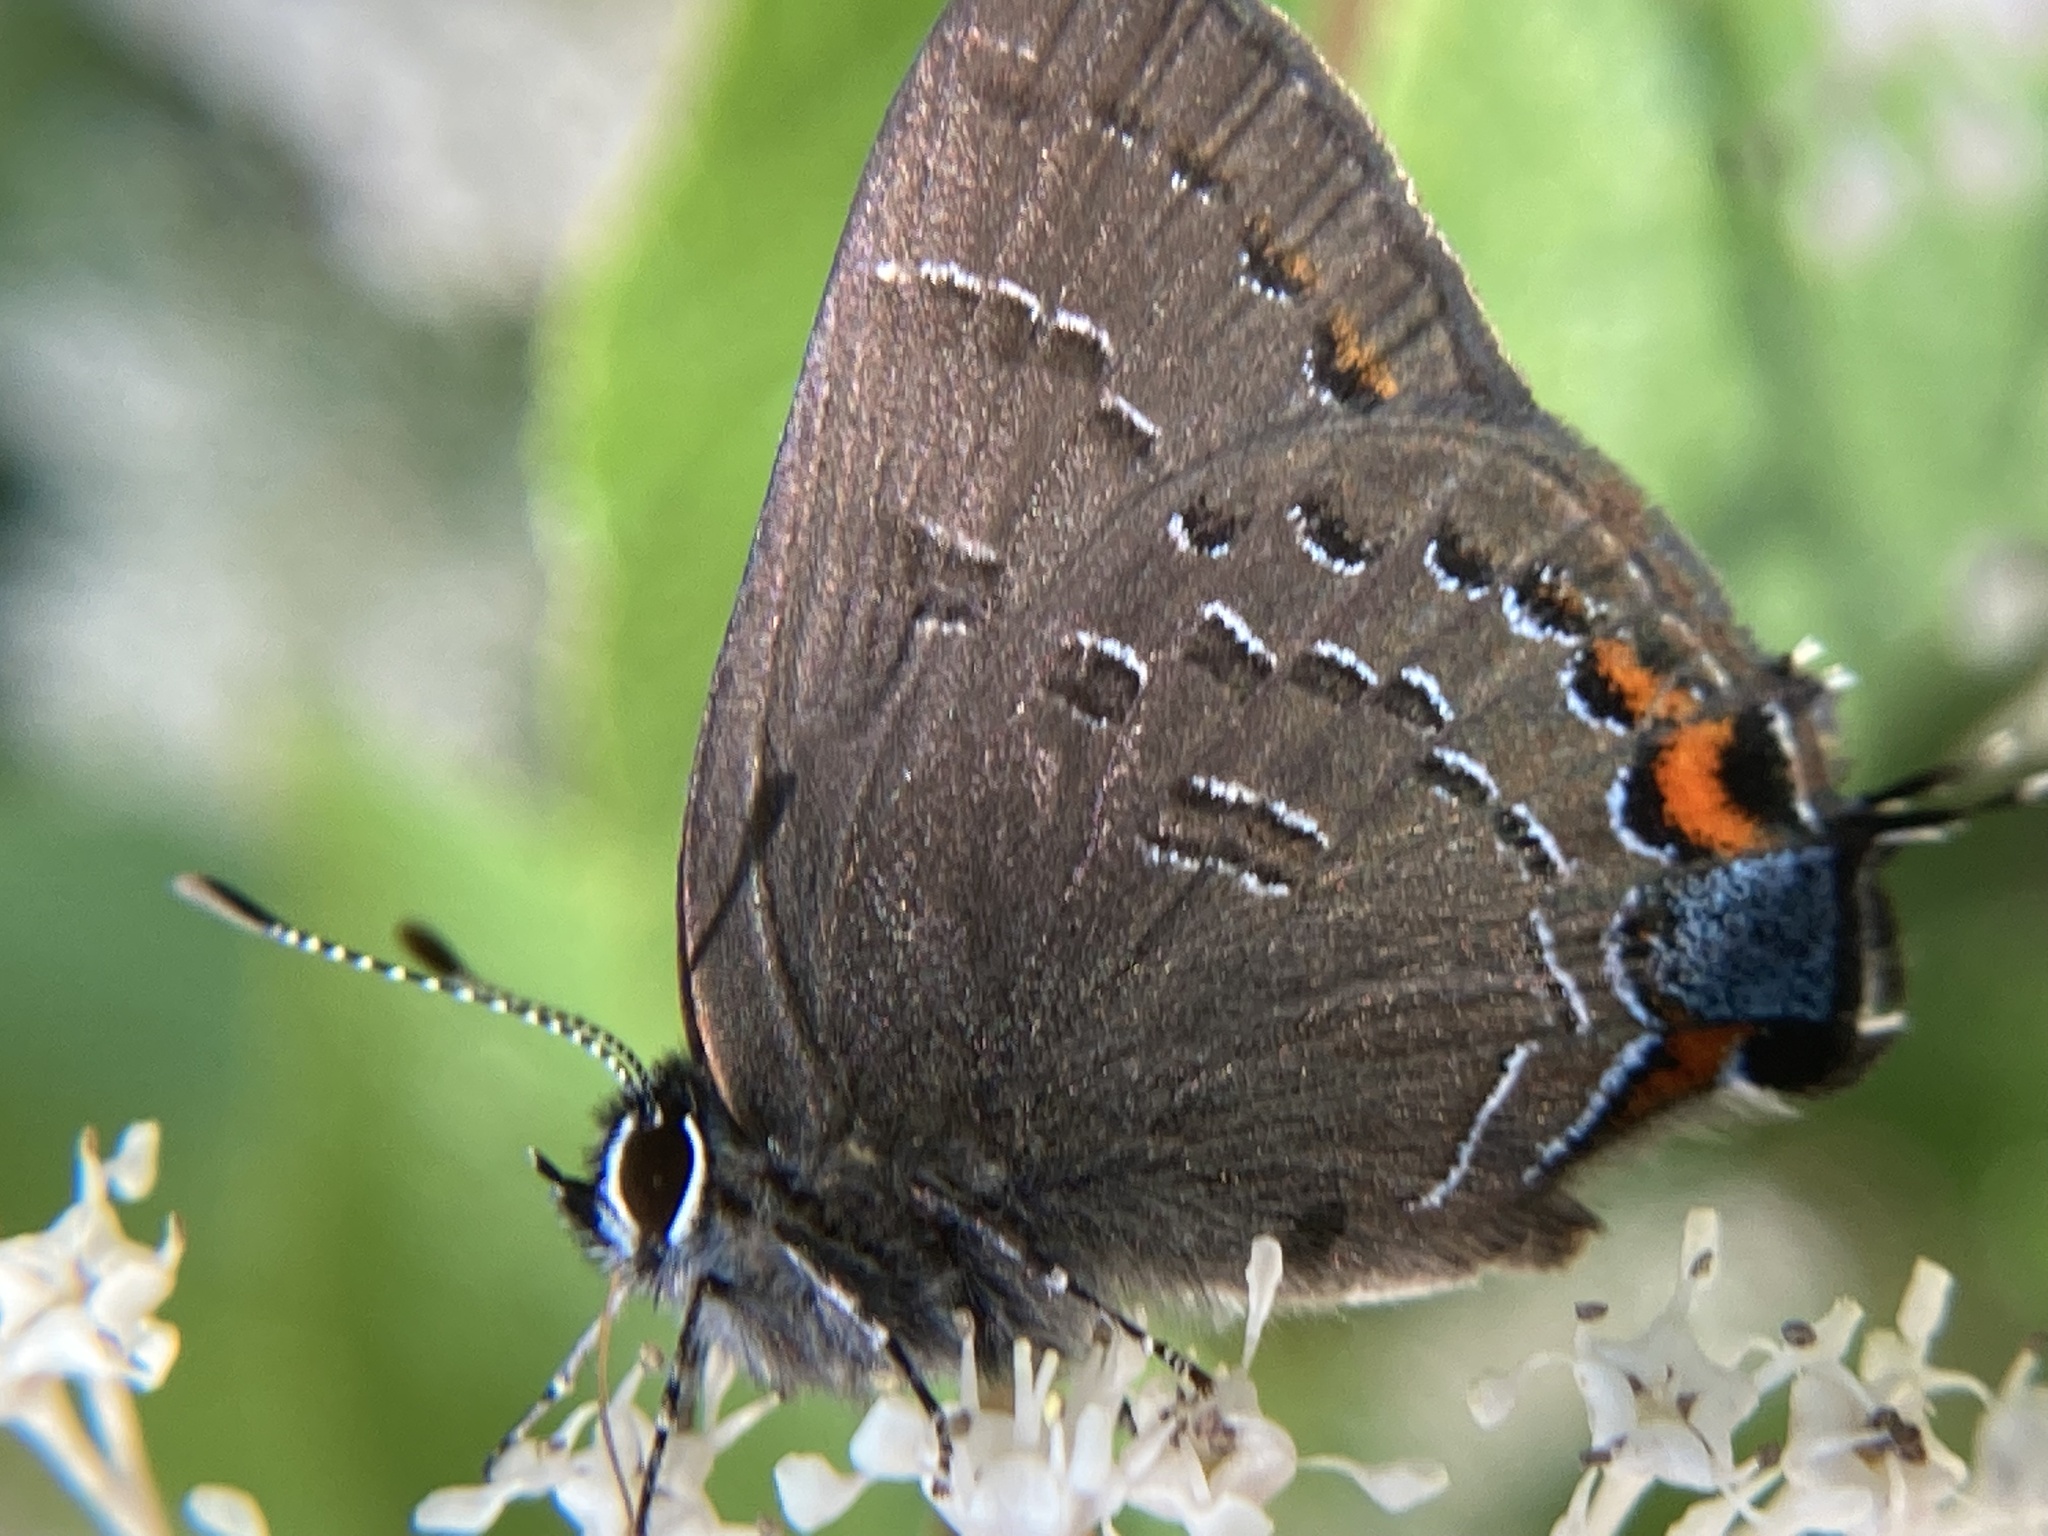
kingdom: Animalia
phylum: Arthropoda
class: Insecta
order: Lepidoptera
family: Lycaenidae
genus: Satyrium
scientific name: Satyrium calanus
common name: Banded hairstreak
